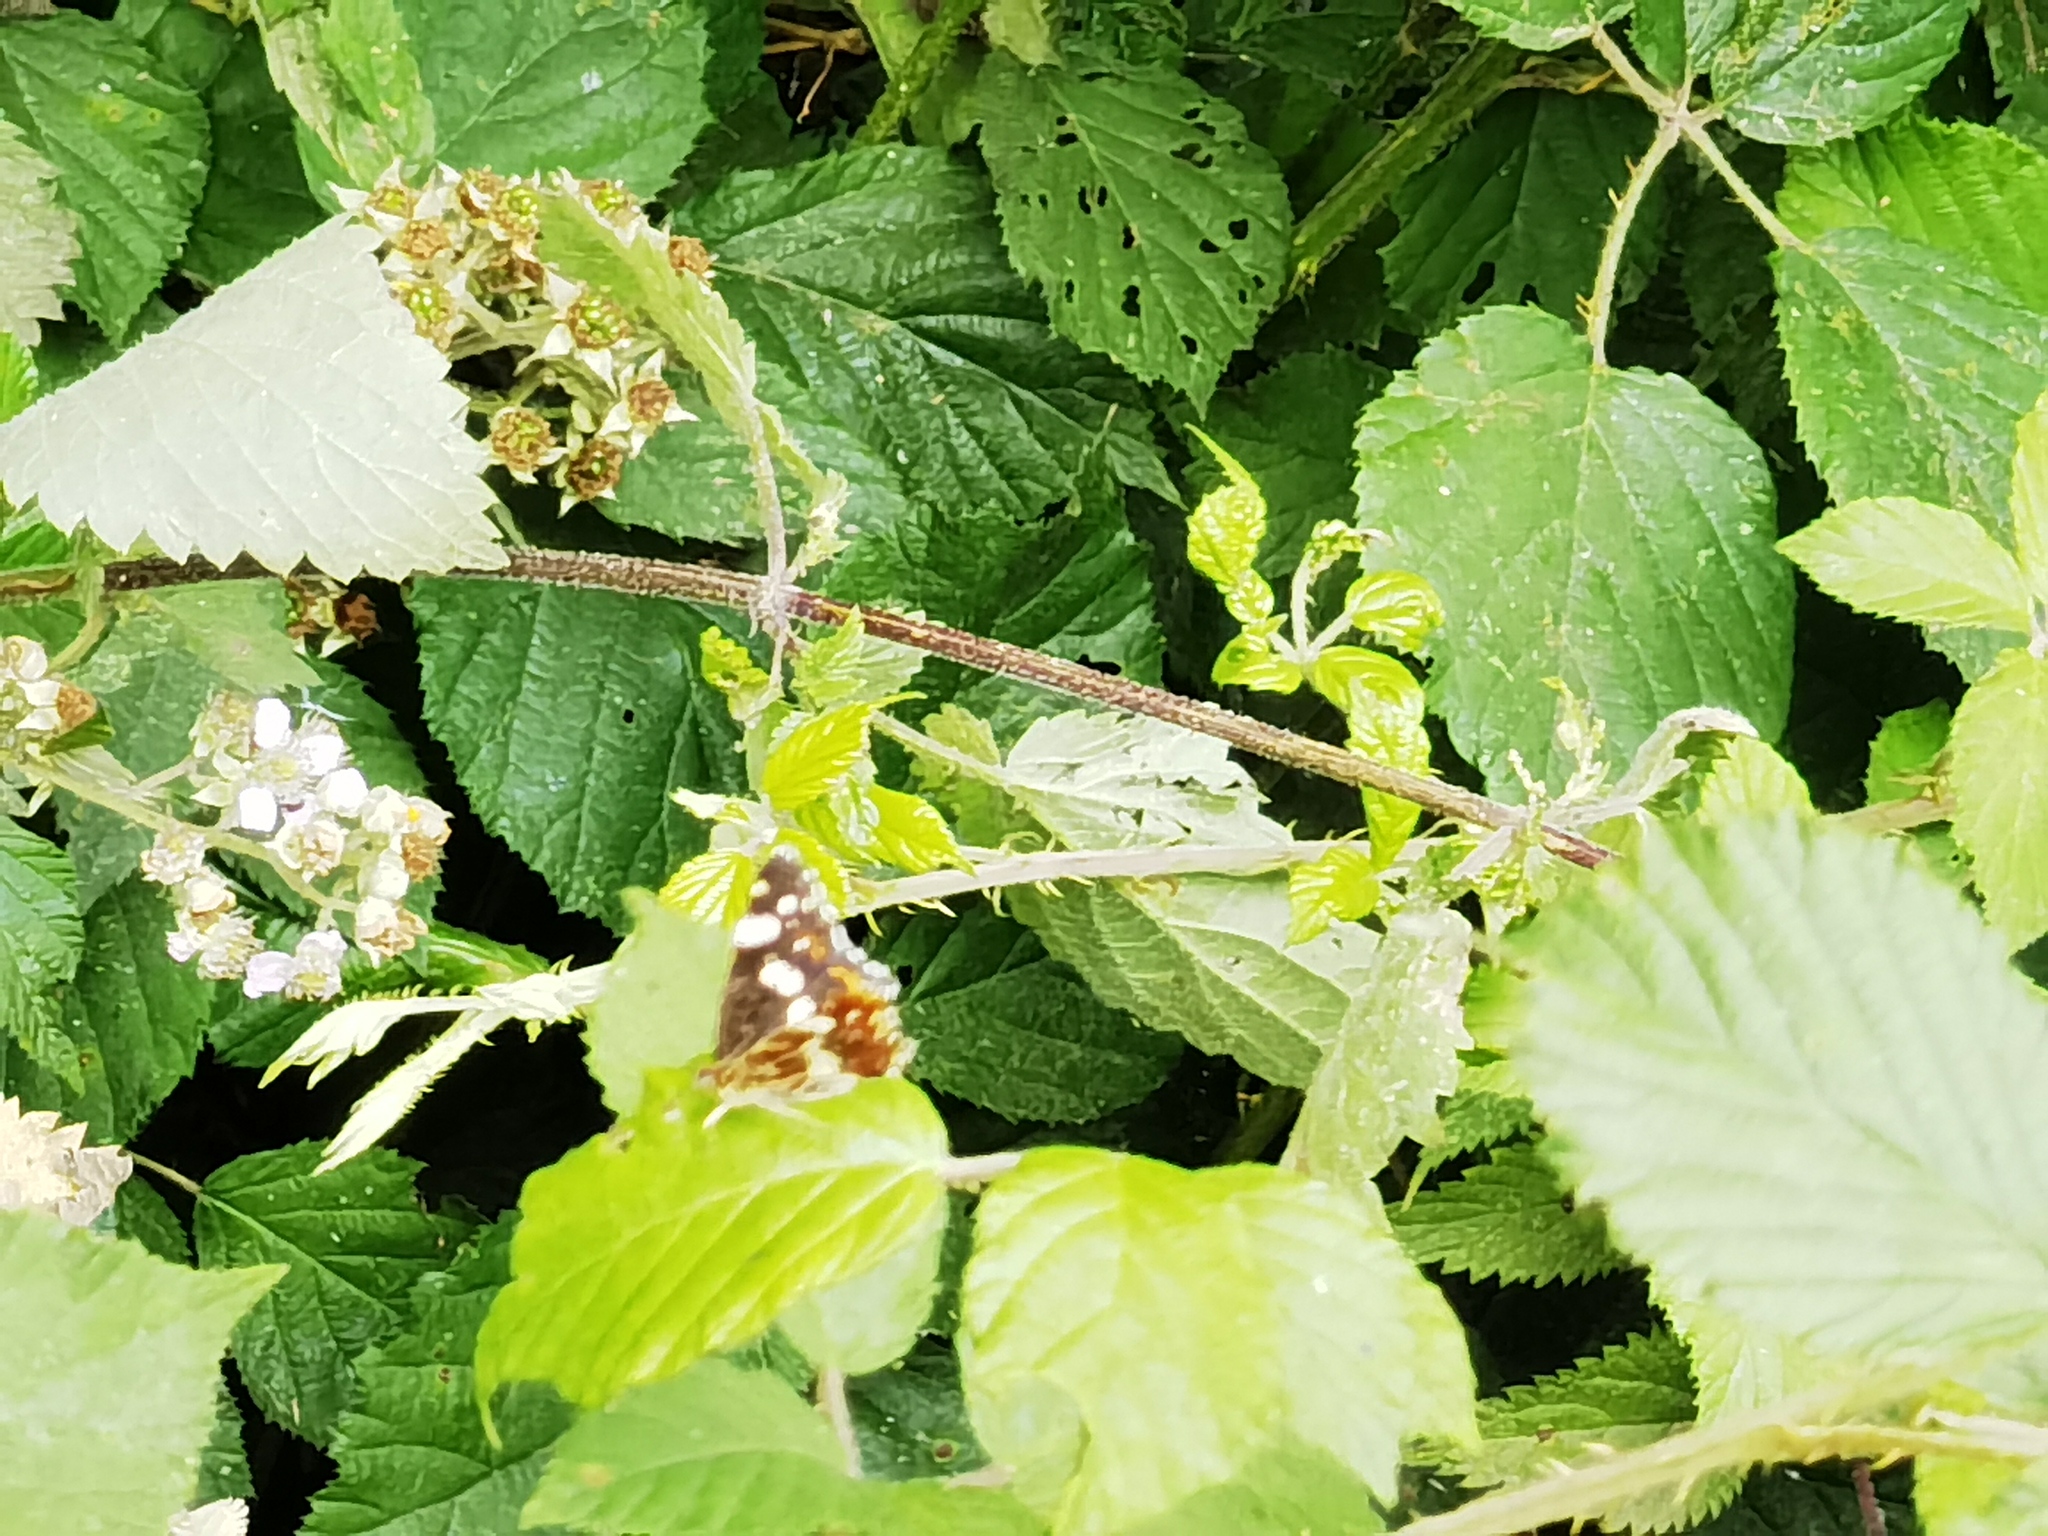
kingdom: Animalia
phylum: Arthropoda
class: Insecta
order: Lepidoptera
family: Nymphalidae
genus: Araschnia
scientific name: Araschnia levana
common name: Map butterfly
